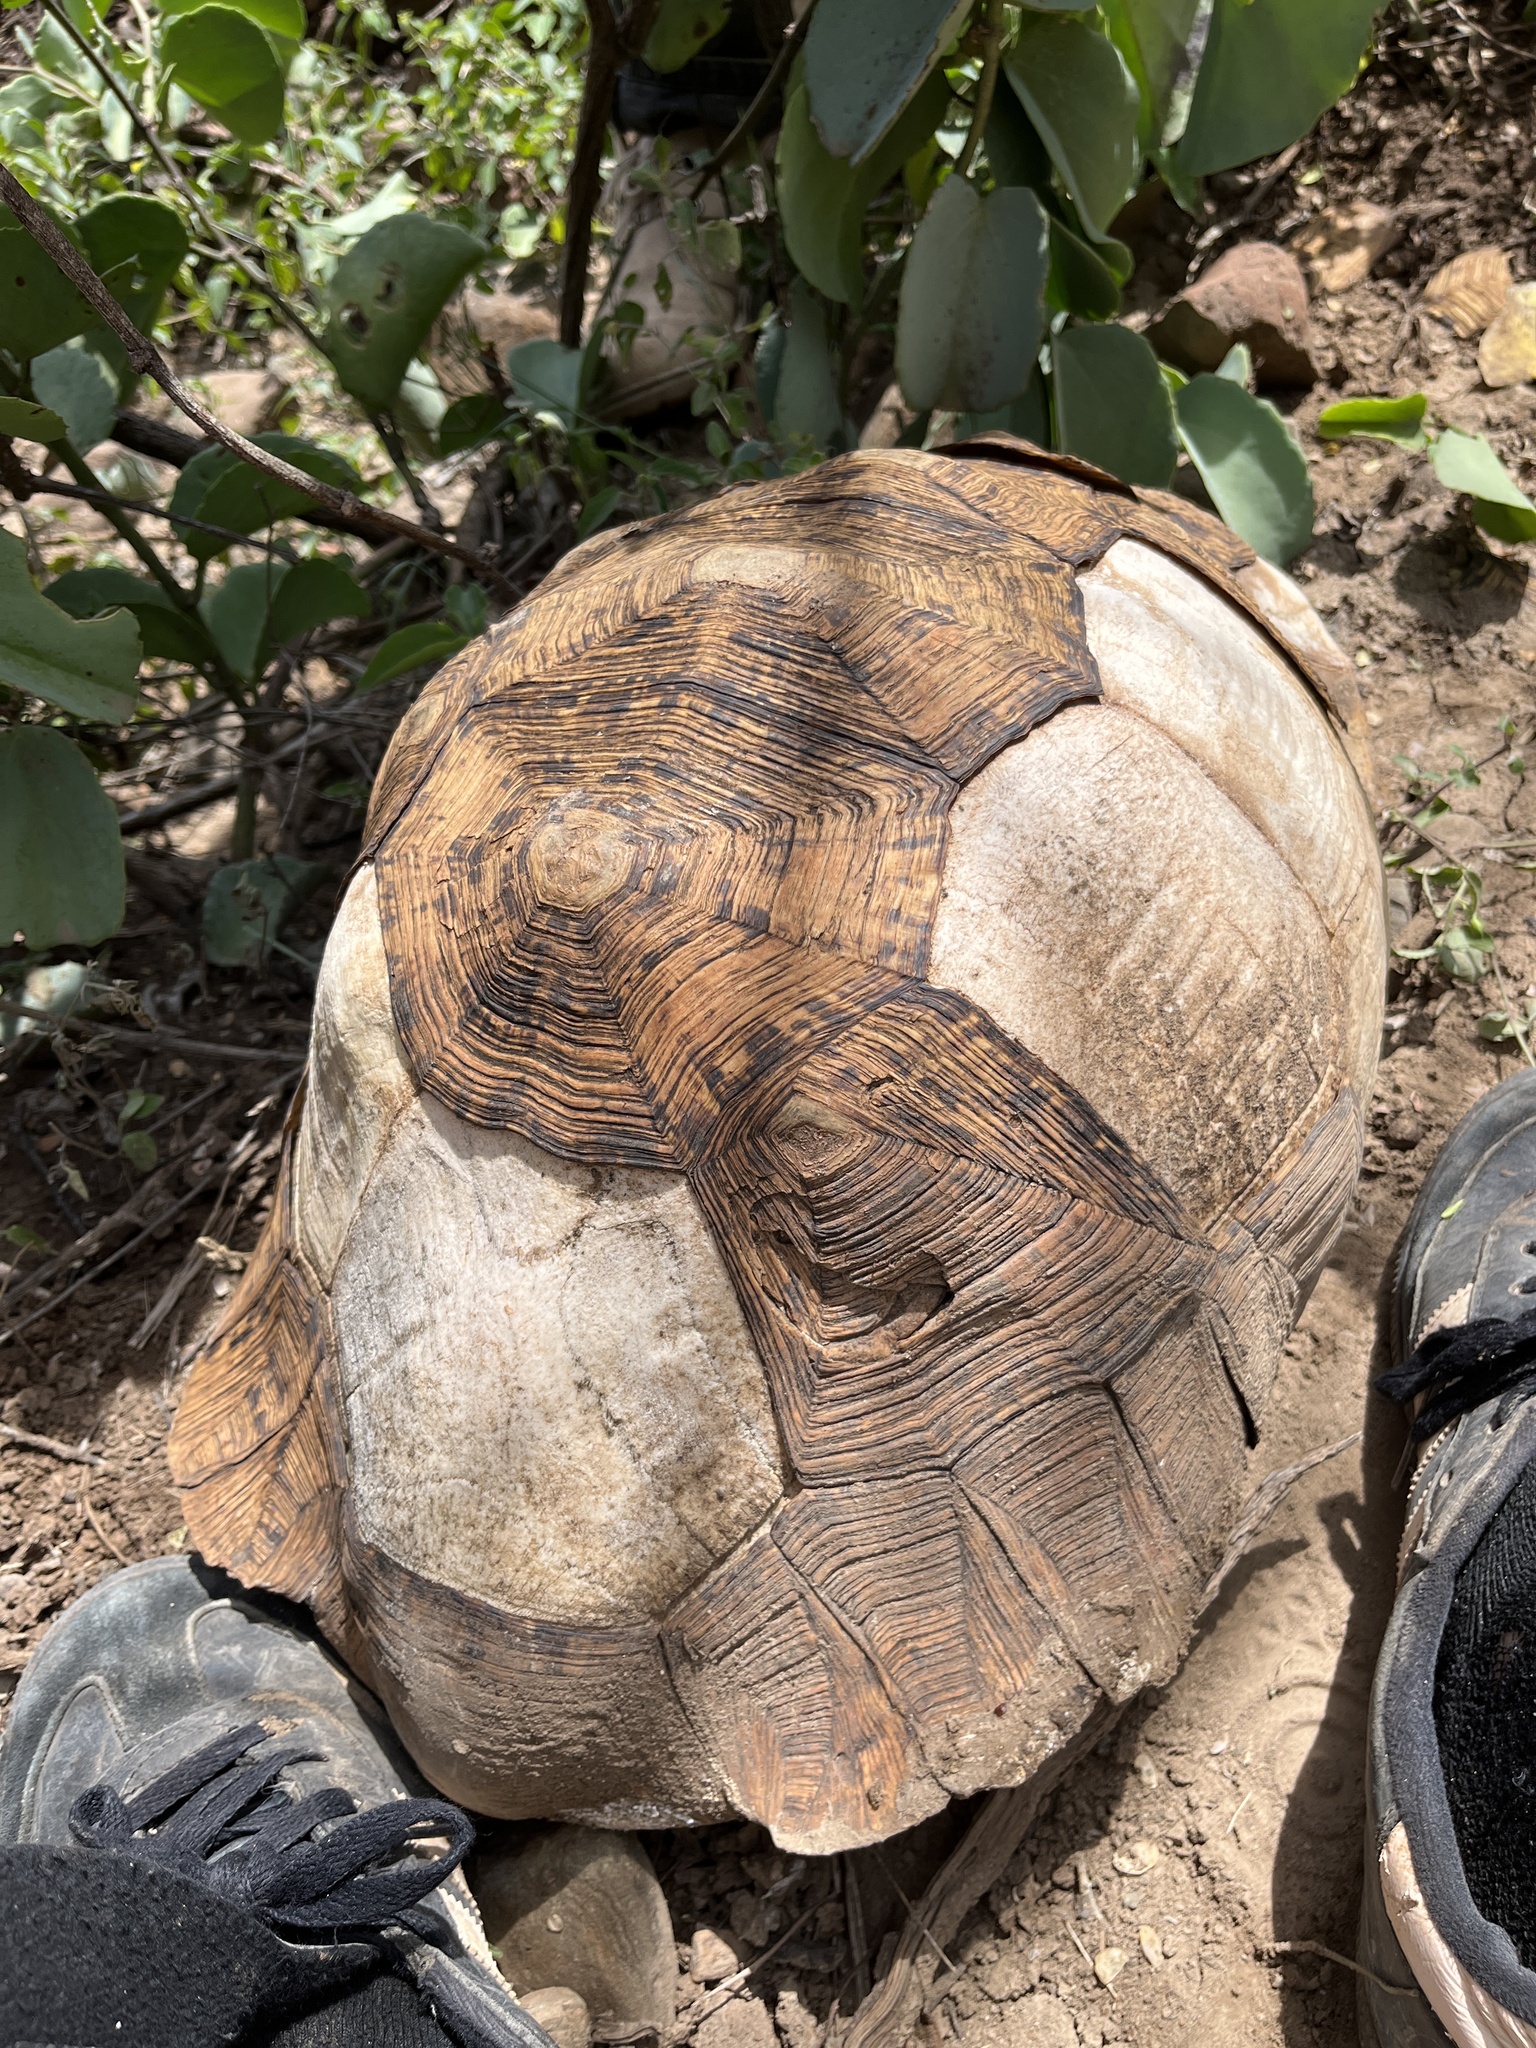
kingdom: Animalia
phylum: Chordata
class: Testudines
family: Testudinidae
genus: Stigmochelys
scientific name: Stigmochelys pardalis
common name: Leopard tortoise
